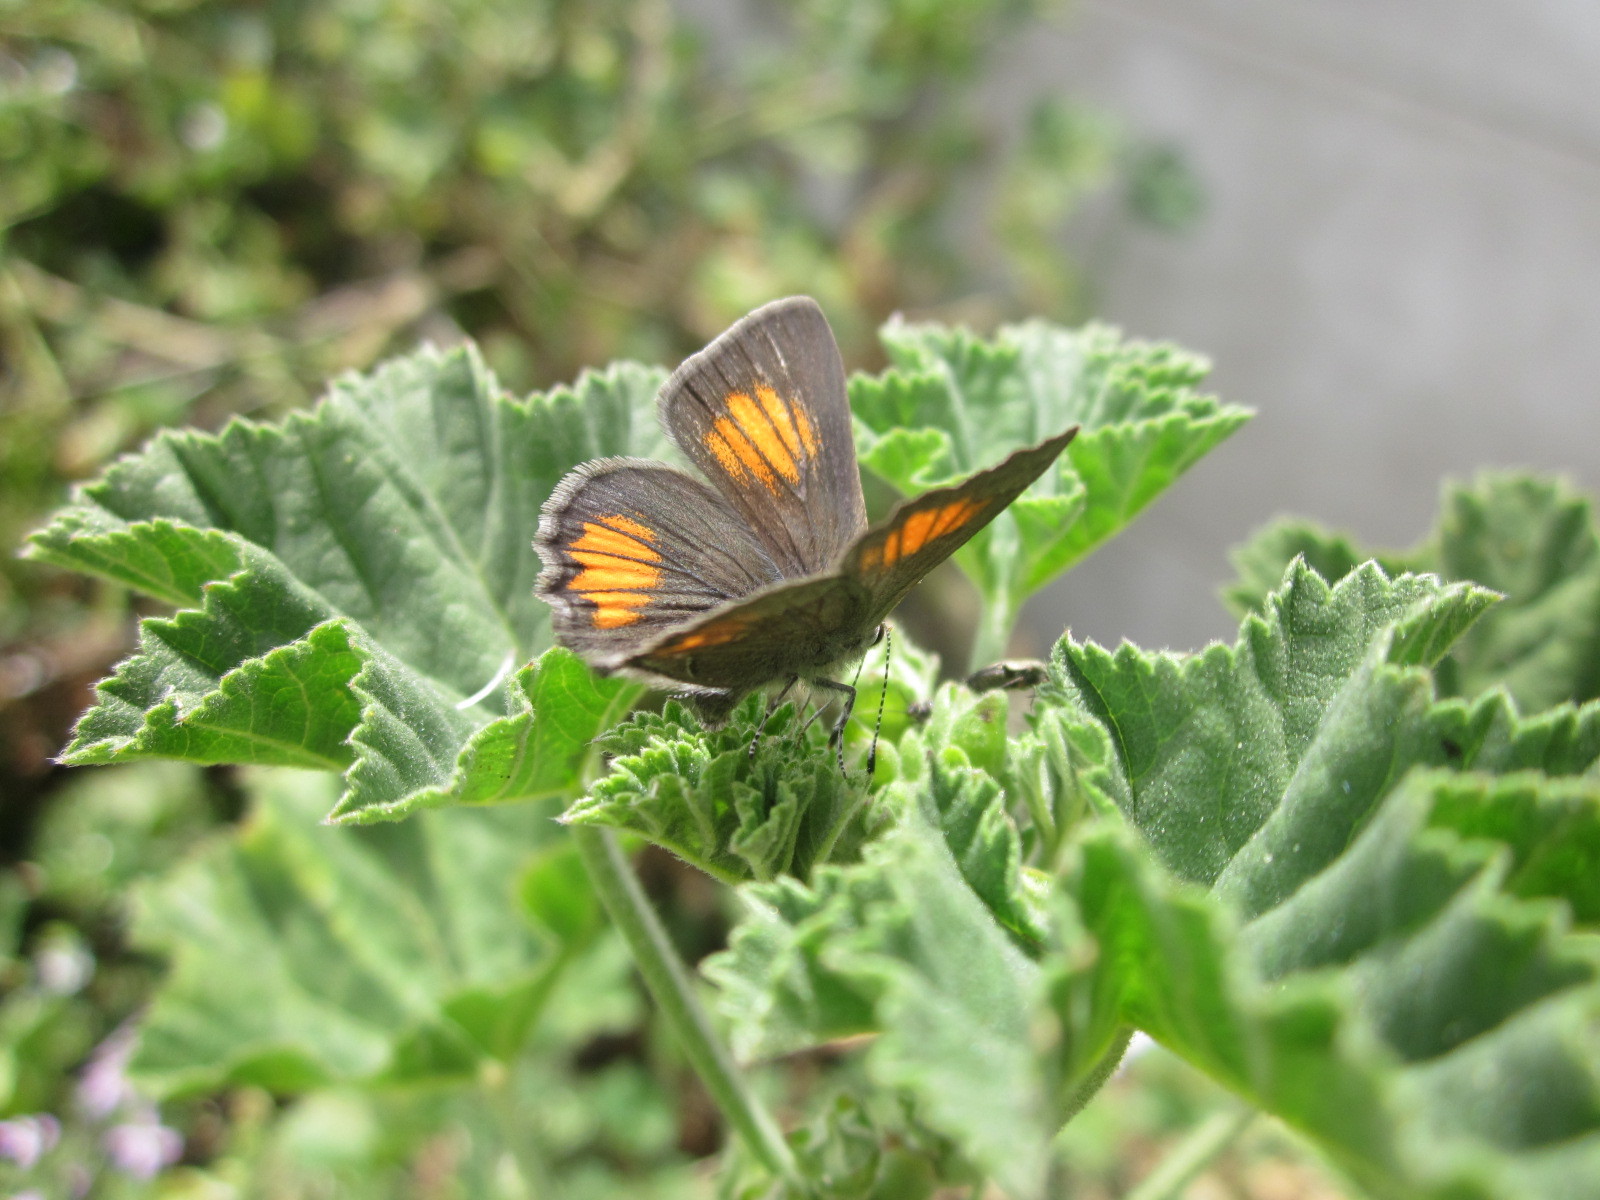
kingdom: Animalia
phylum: Arthropoda
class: Insecta
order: Lepidoptera
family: Lycaenidae
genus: Strymon
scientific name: Strymon
